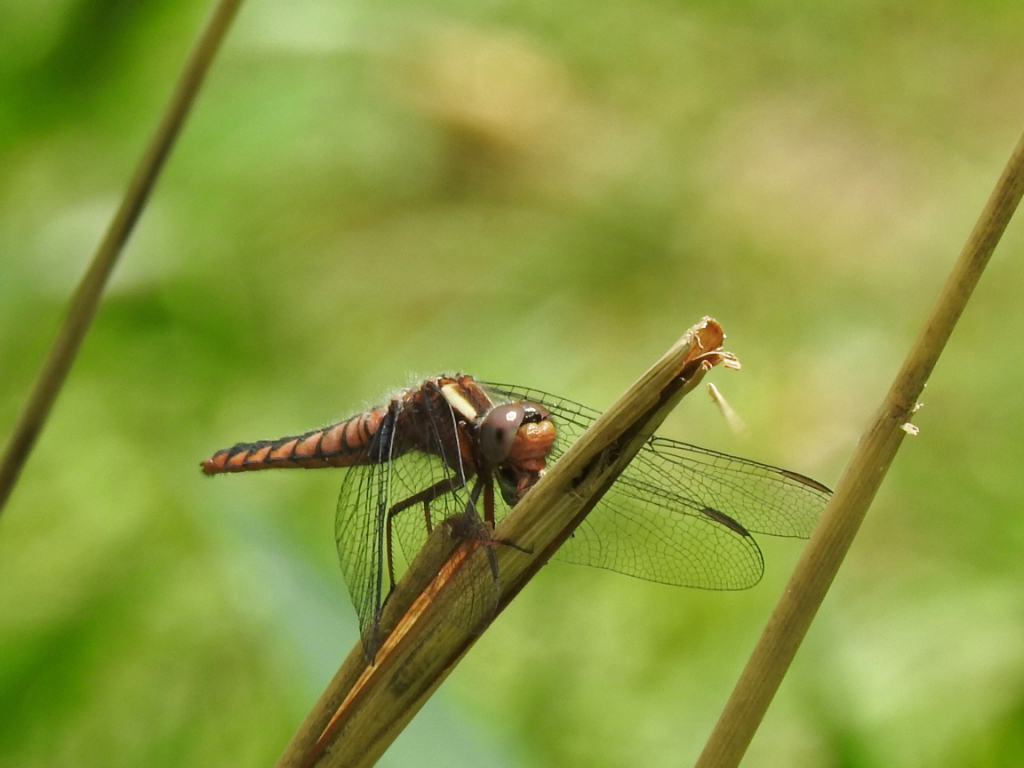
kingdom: Animalia
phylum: Arthropoda
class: Insecta
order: Odonata
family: Libellulidae
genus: Ladona
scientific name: Ladona deplanata
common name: Blue corporal
